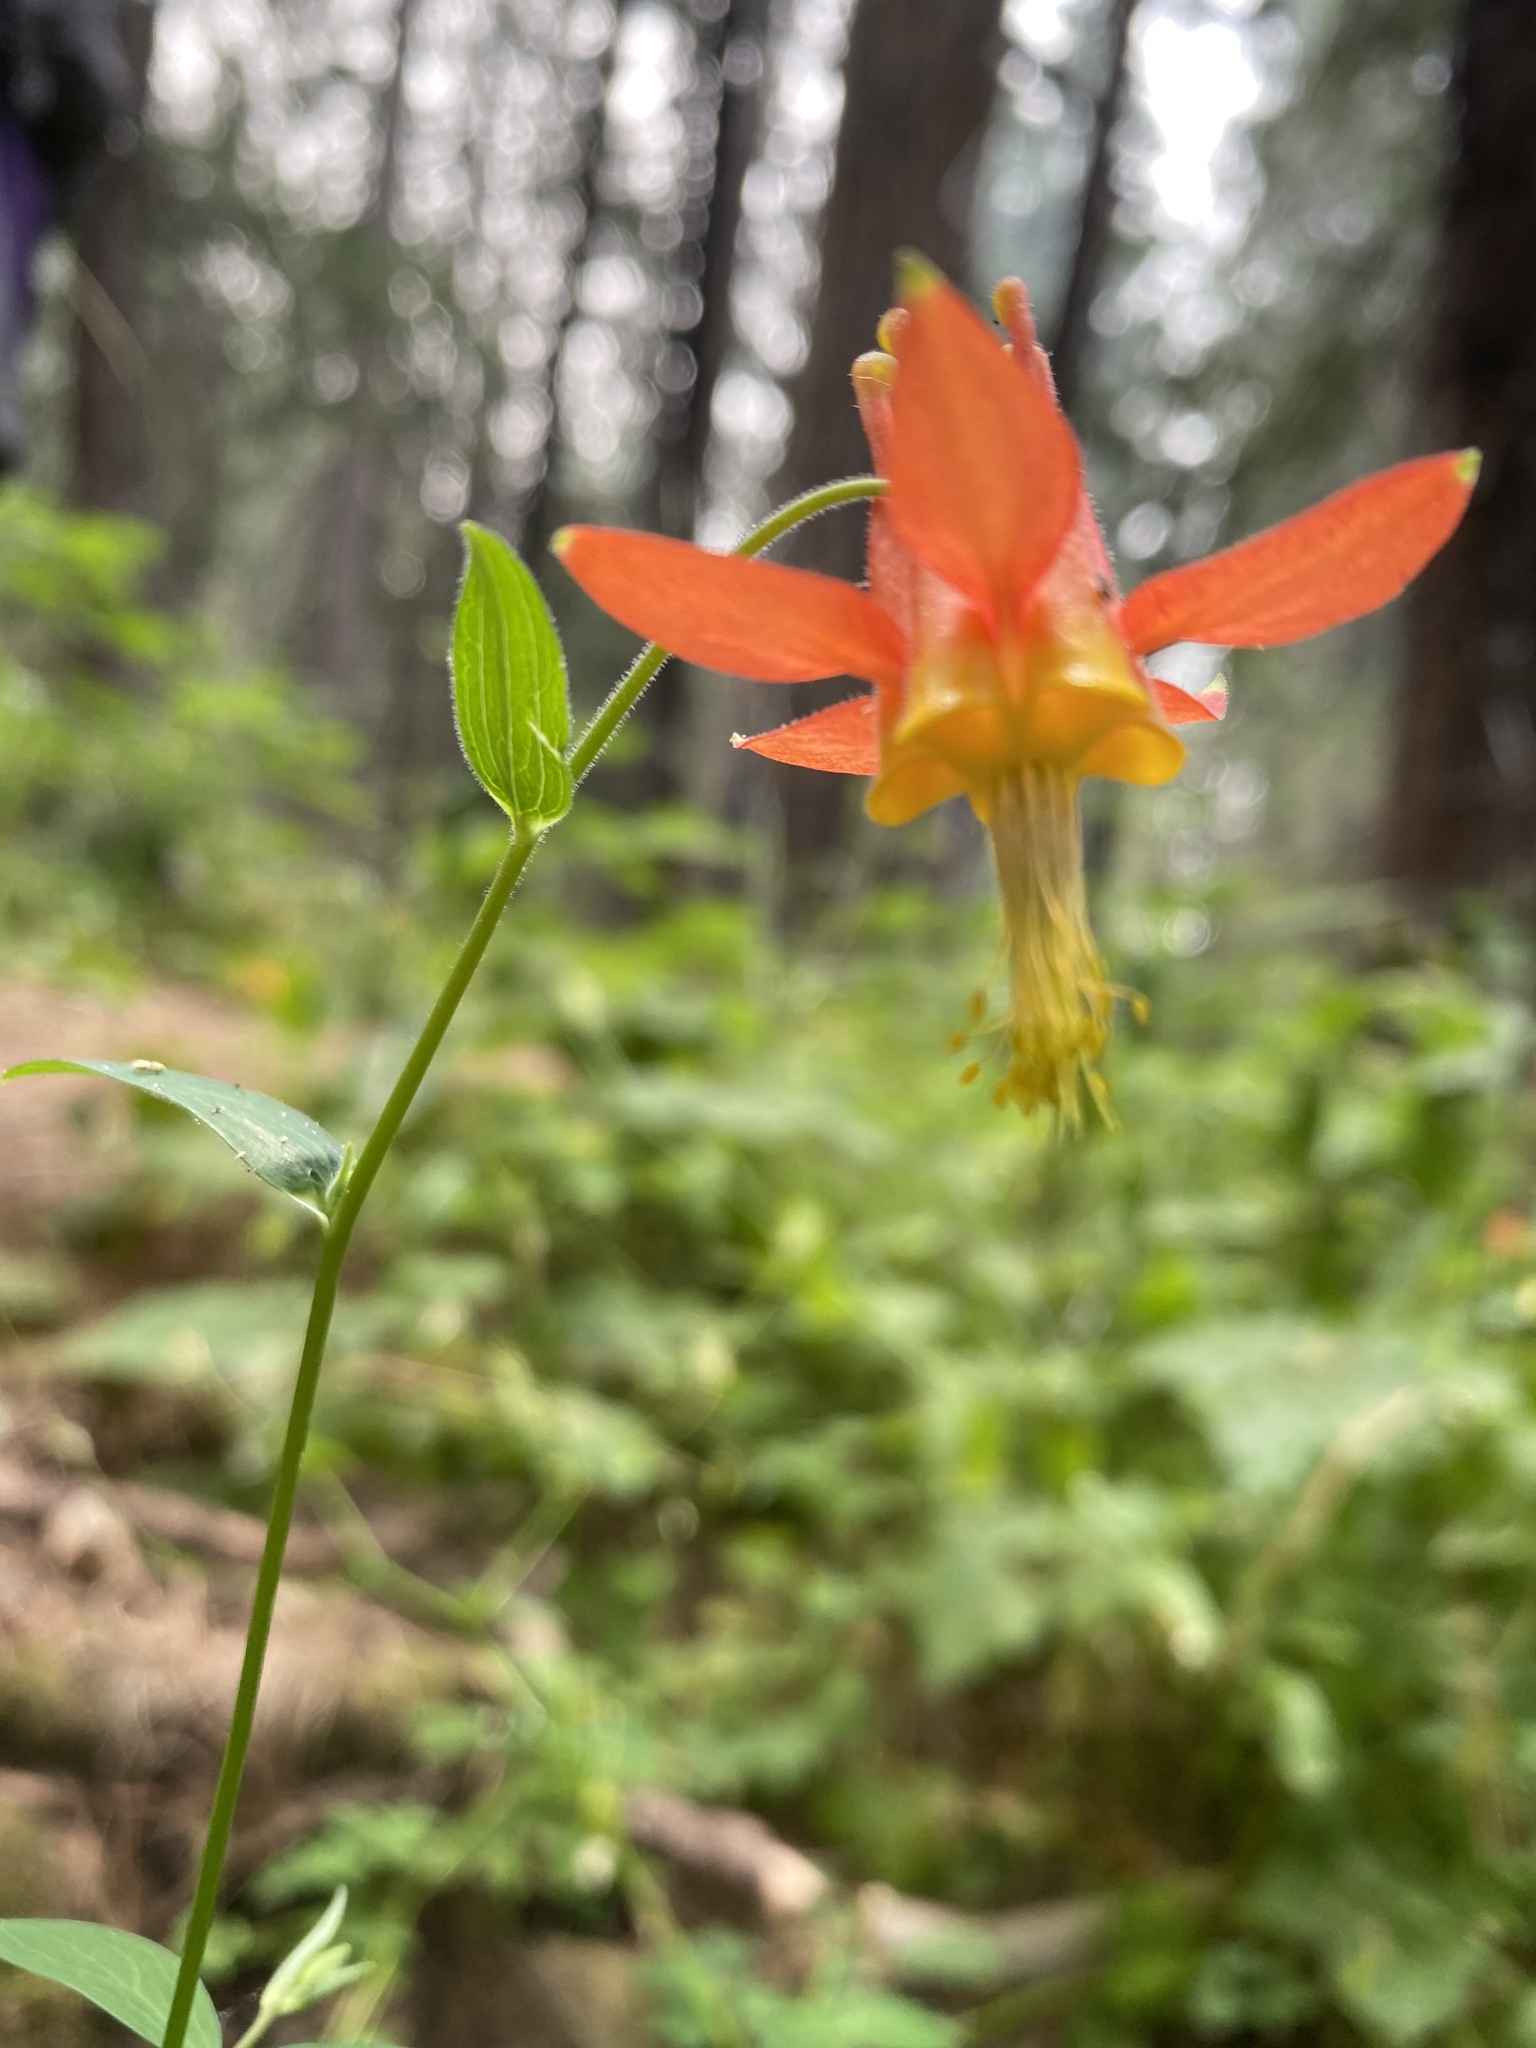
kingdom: Plantae
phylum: Tracheophyta
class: Magnoliopsida
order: Ranunculales
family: Ranunculaceae
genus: Aquilegia
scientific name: Aquilegia formosa
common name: Sitka columbine
